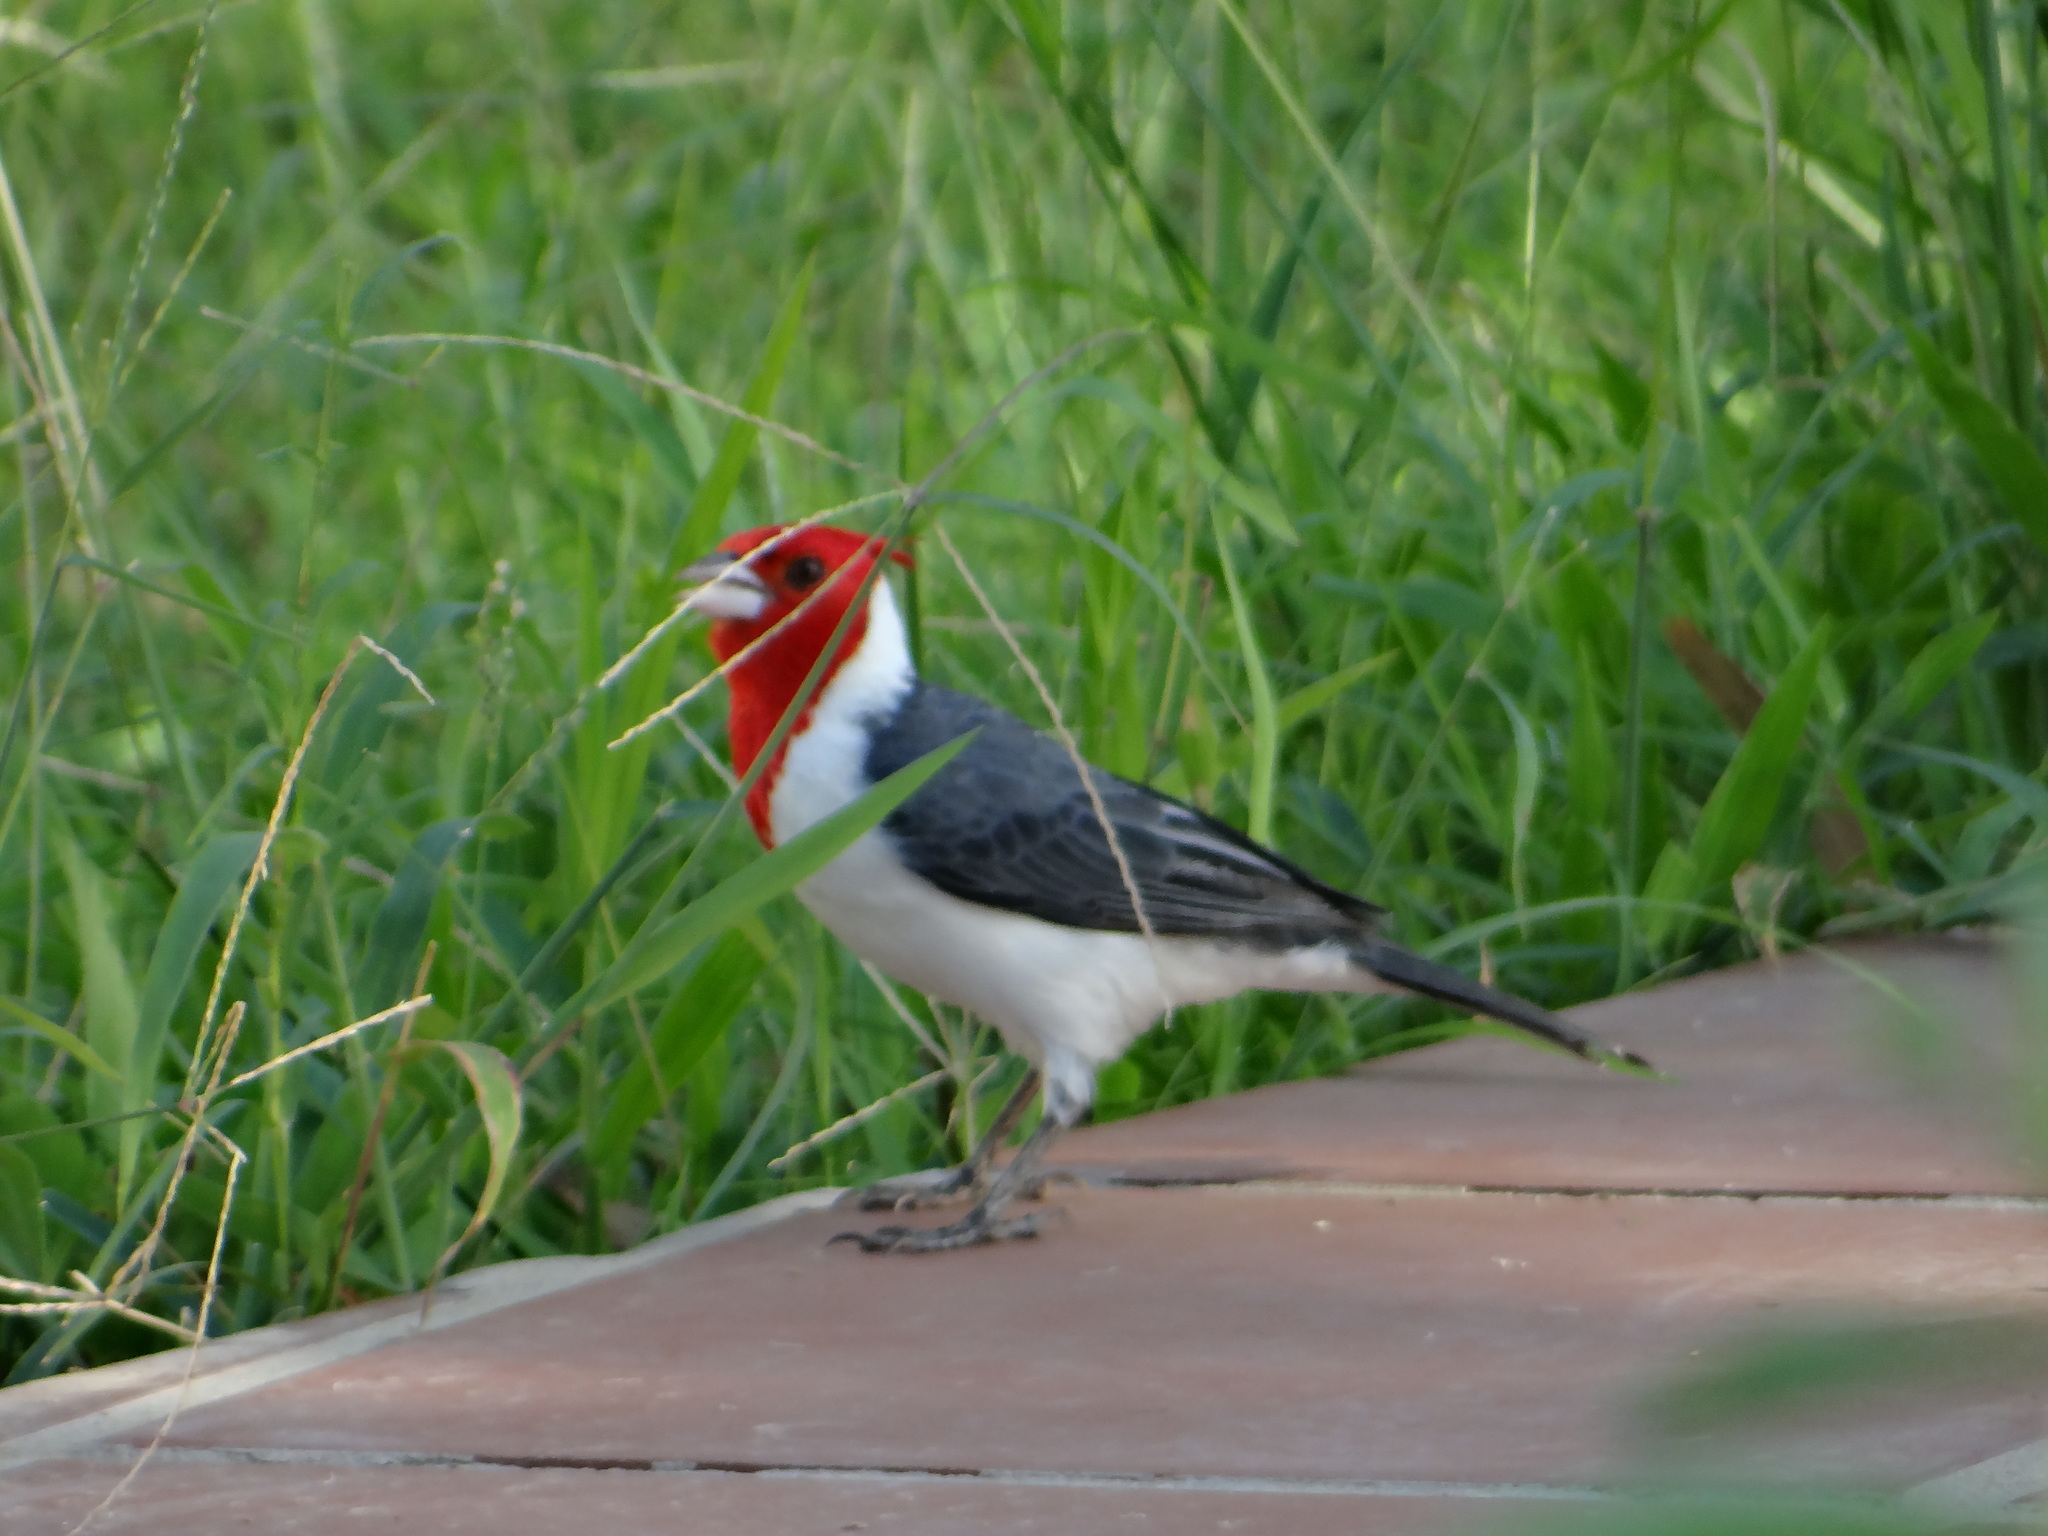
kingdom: Animalia
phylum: Chordata
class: Aves
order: Passeriformes
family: Thraupidae
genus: Paroaria
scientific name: Paroaria coronata
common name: Red-crested cardinal
